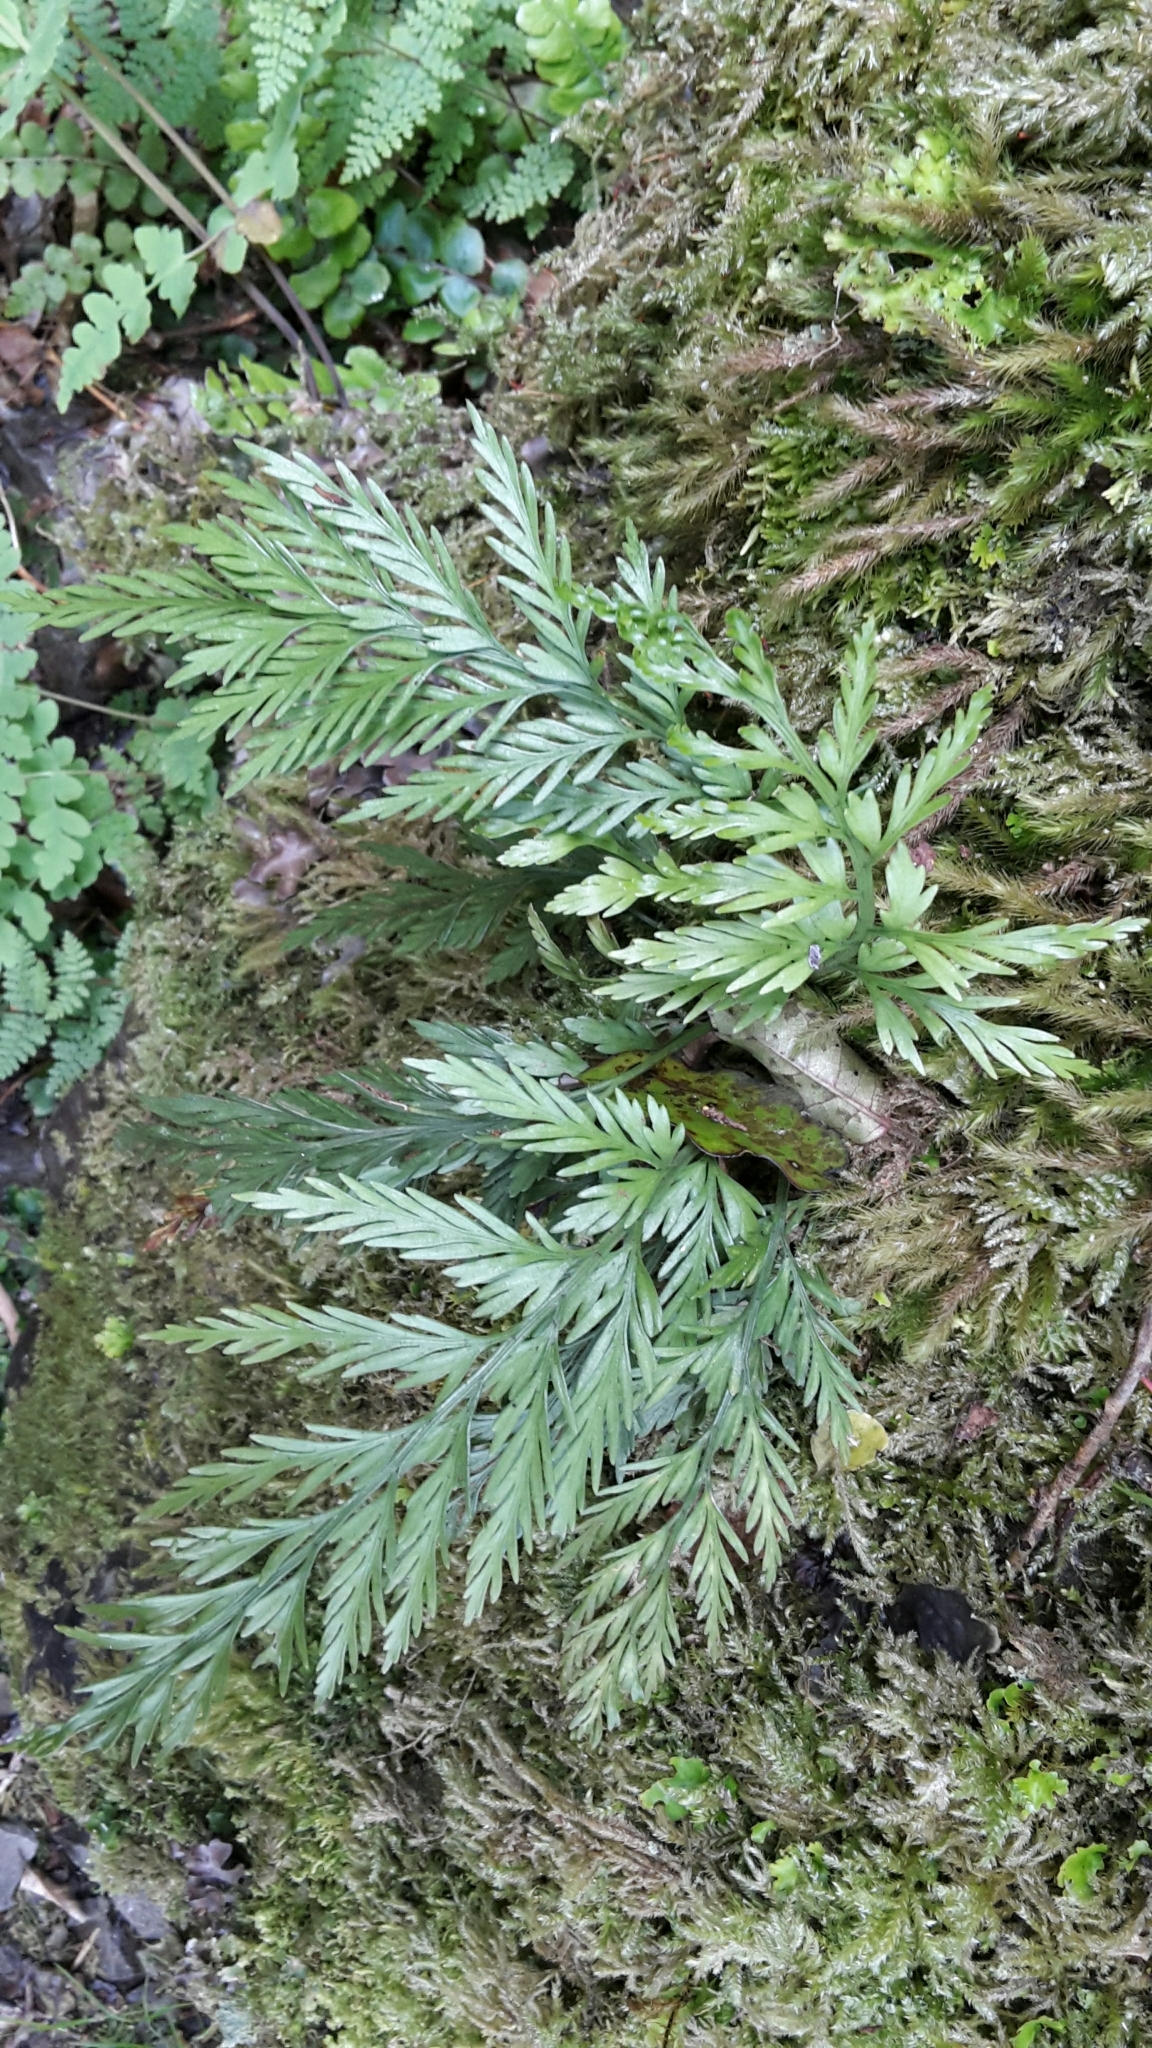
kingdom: Plantae
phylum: Tracheophyta
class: Polypodiopsida
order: Polypodiales
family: Aspleniaceae
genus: Asplenium
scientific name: Asplenium appendiculatum
